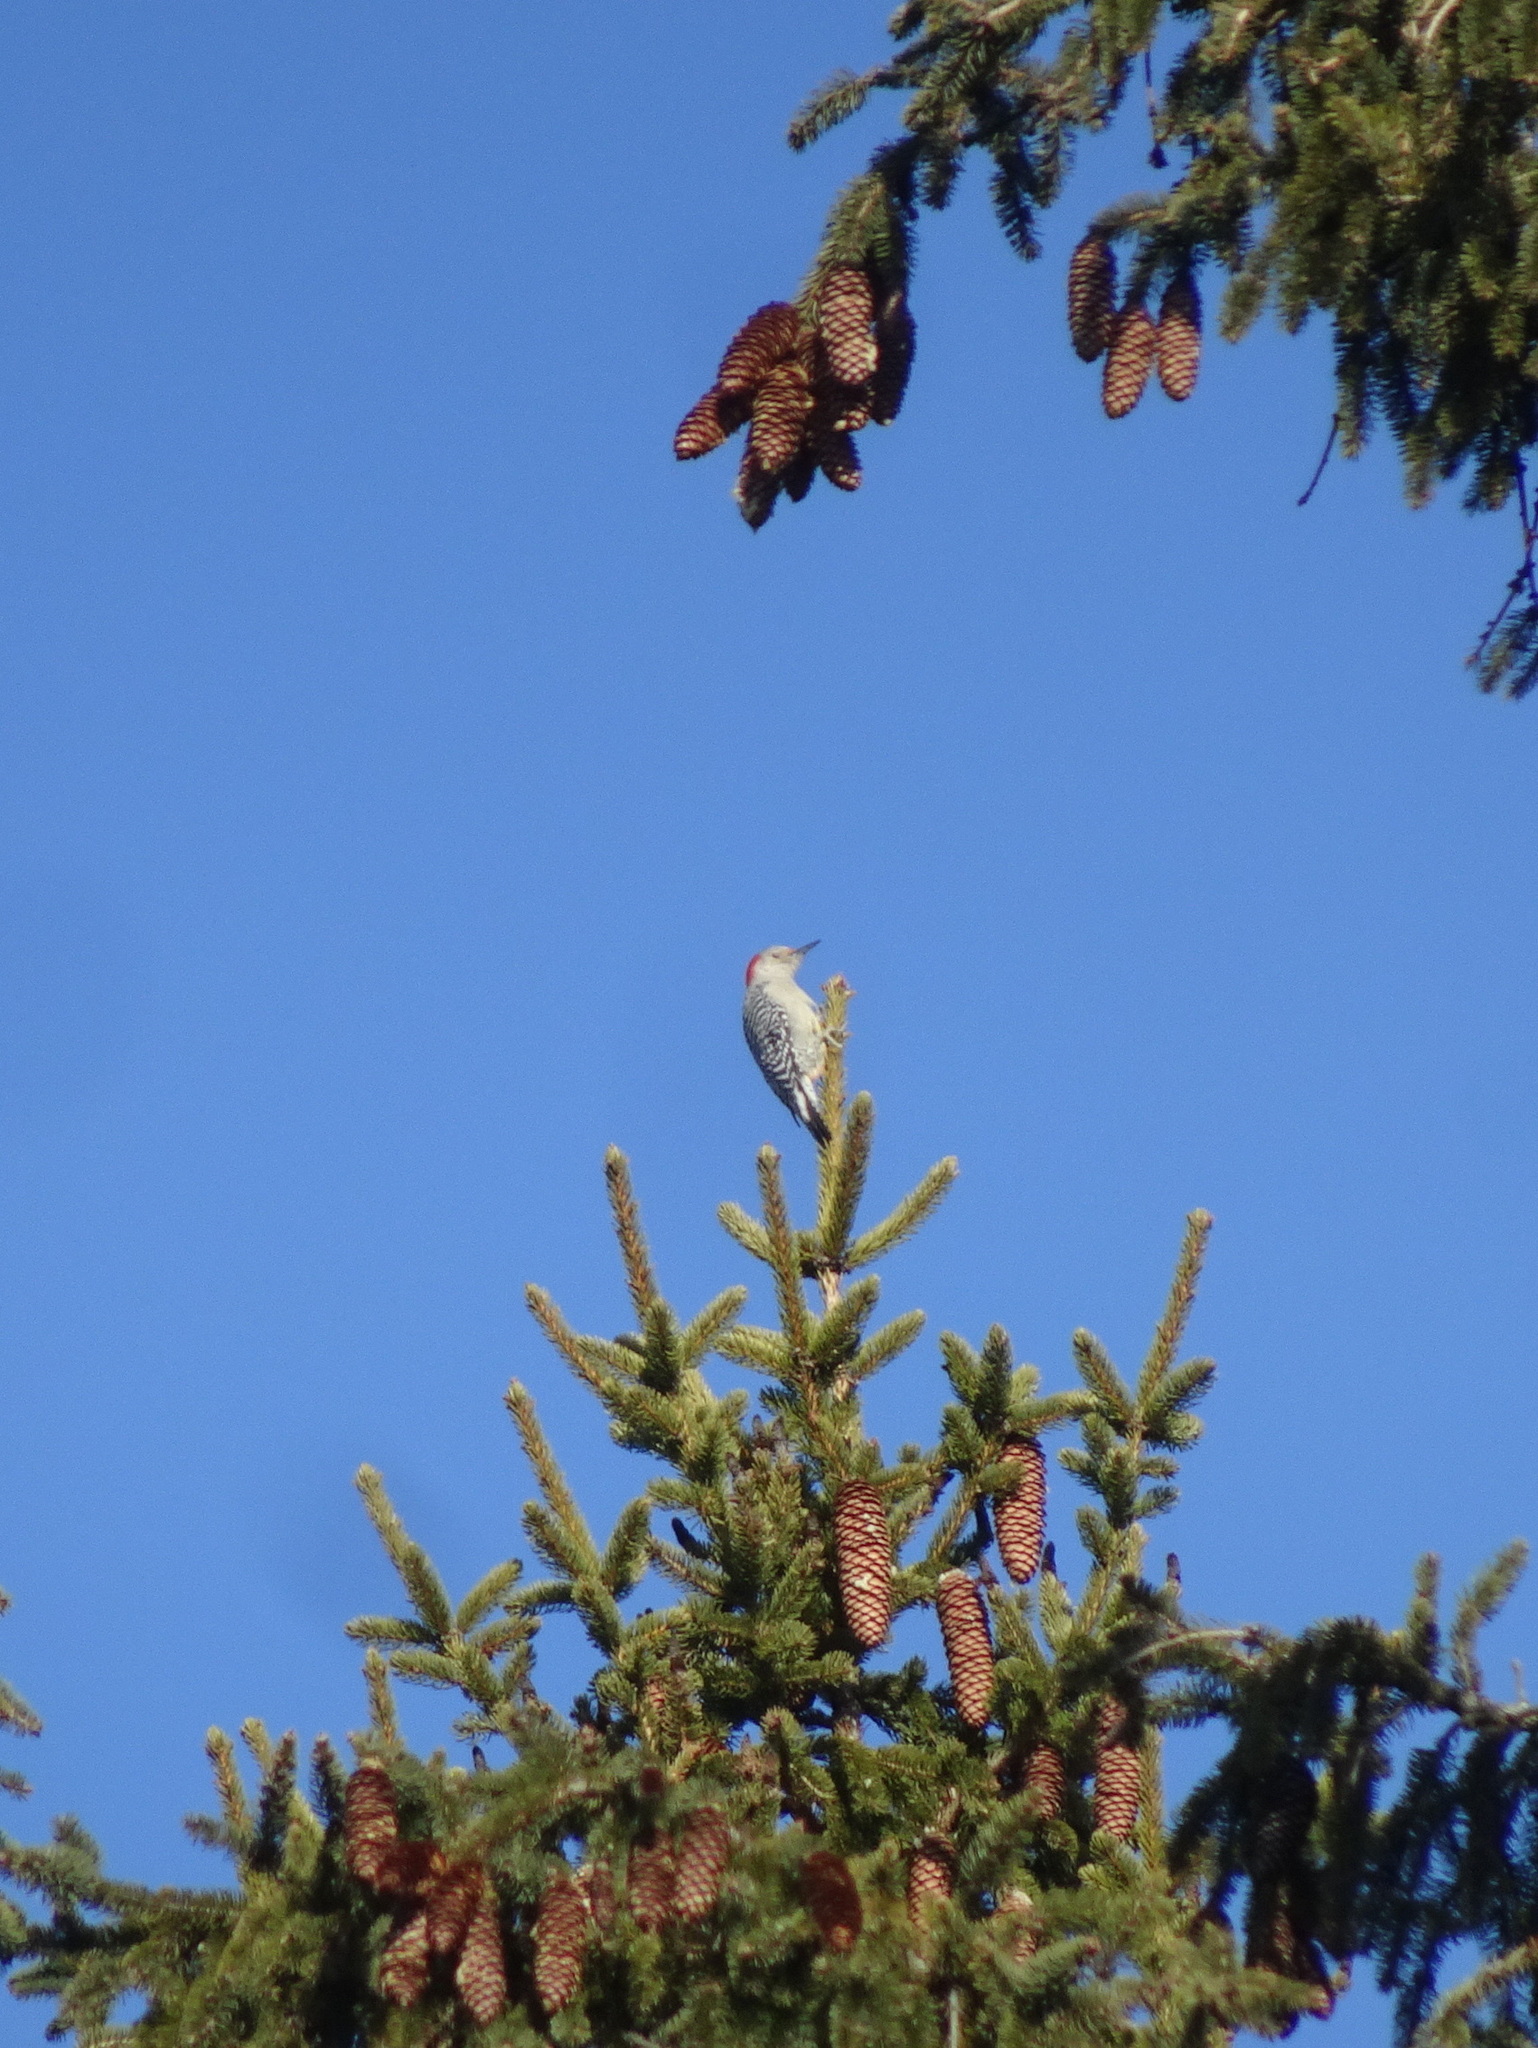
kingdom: Animalia
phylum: Chordata
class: Aves
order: Piciformes
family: Picidae
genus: Melanerpes
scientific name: Melanerpes carolinus
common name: Red-bellied woodpecker
